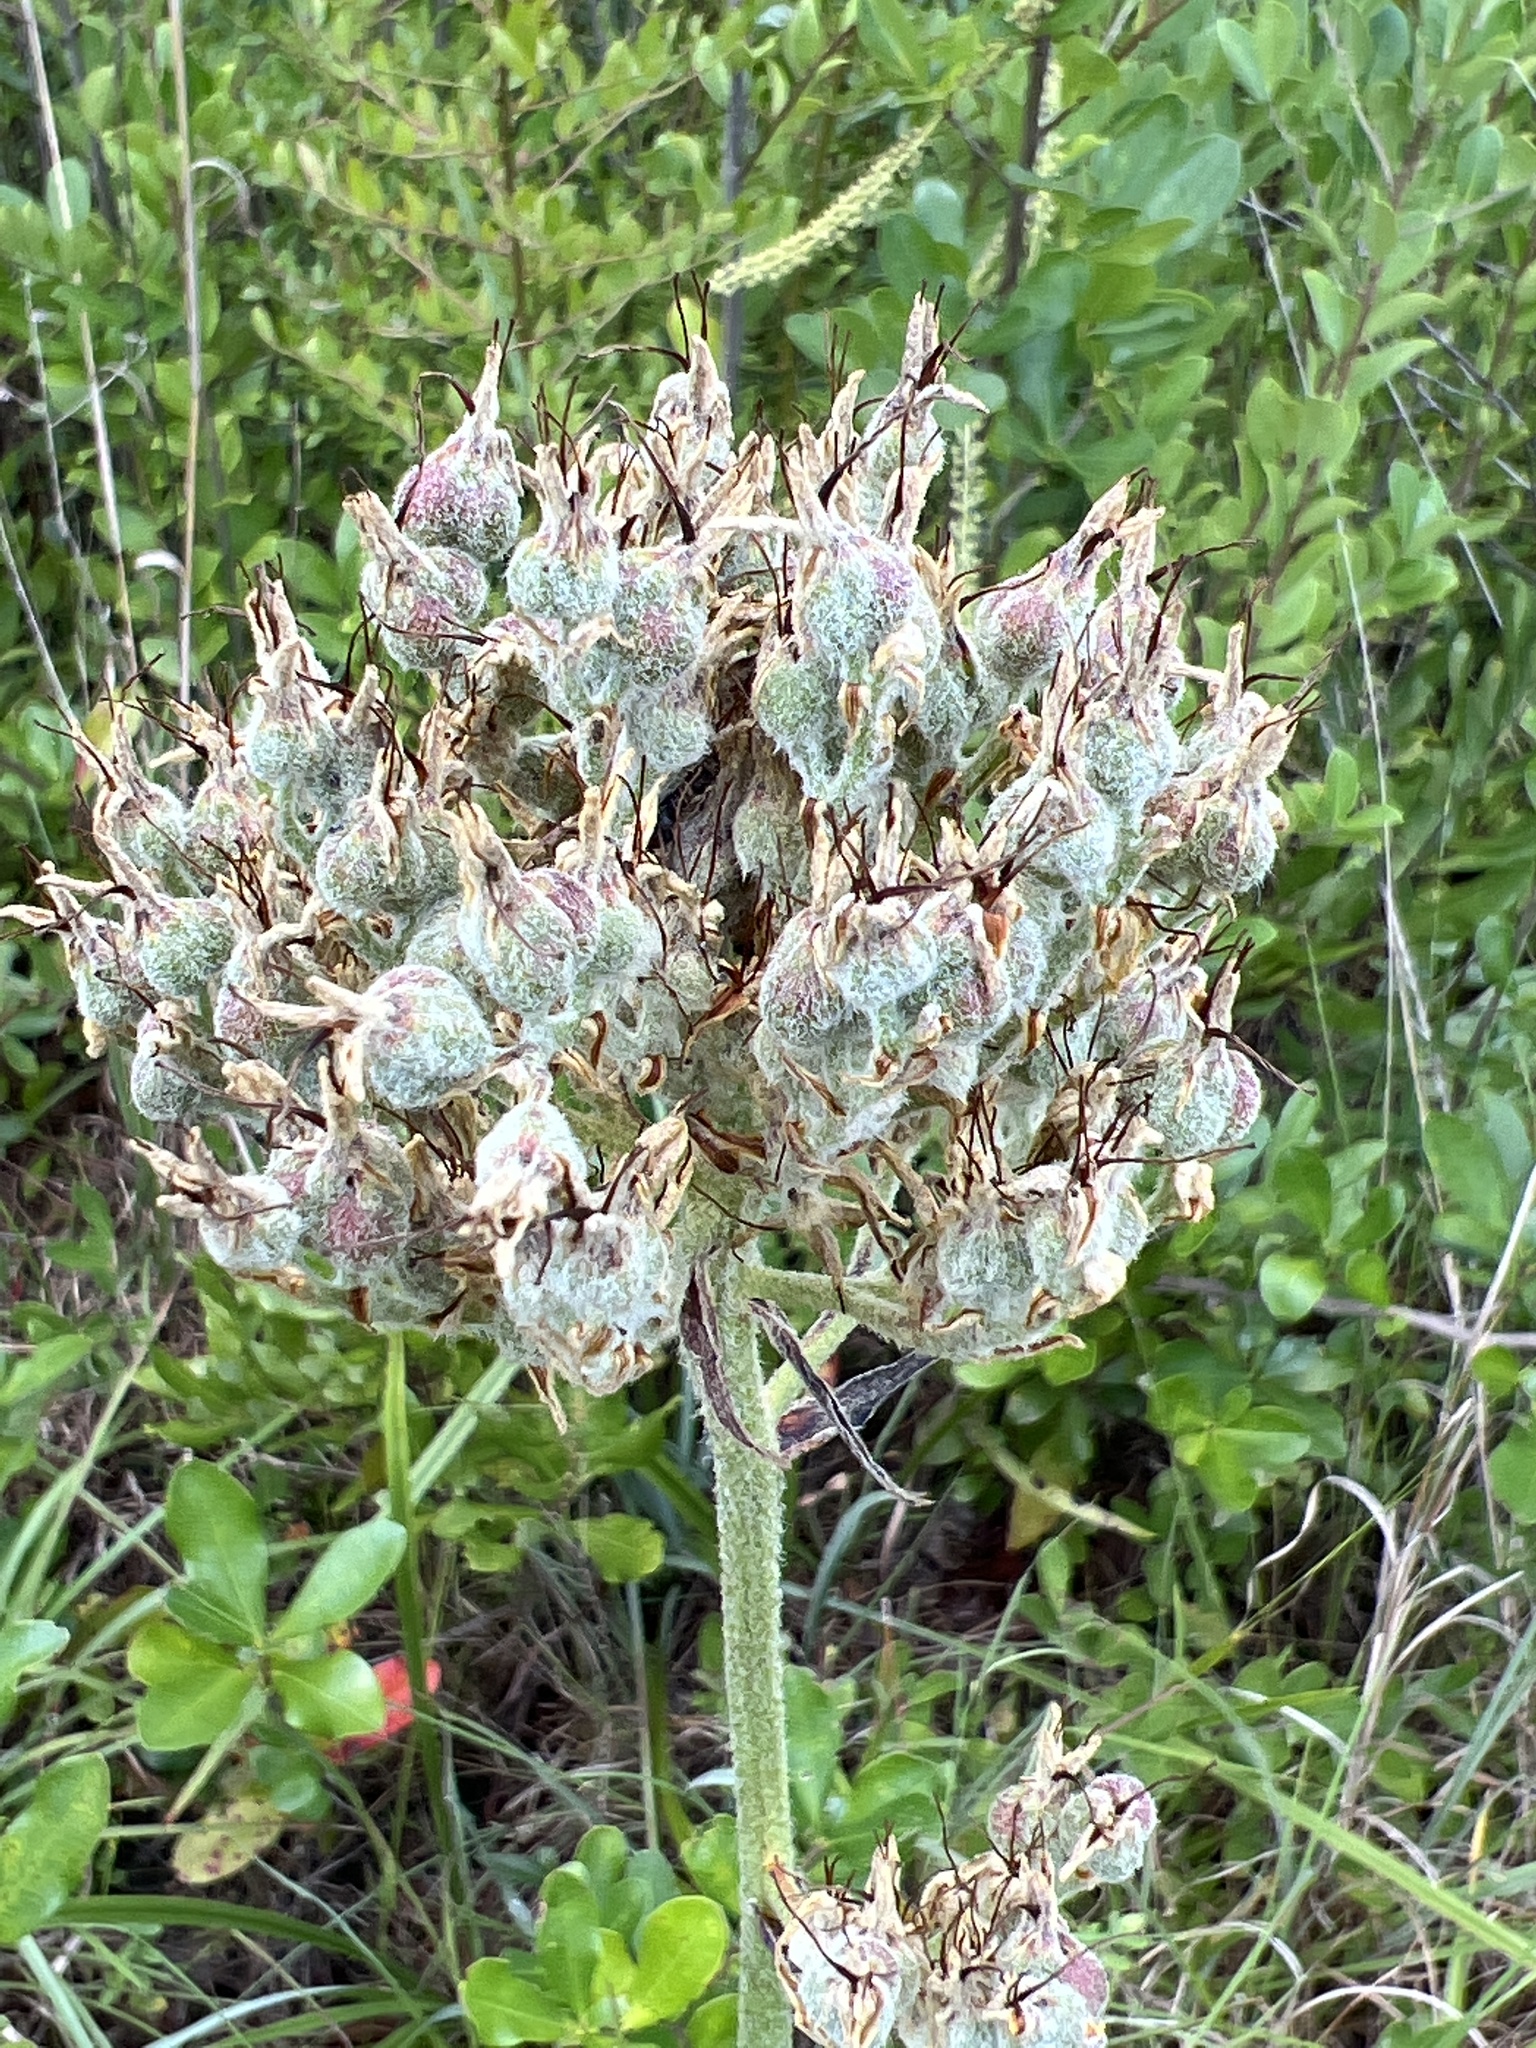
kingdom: Plantae
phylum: Tracheophyta
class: Liliopsida
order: Commelinales
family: Haemodoraceae
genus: Lachnanthes
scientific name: Lachnanthes caroliana
